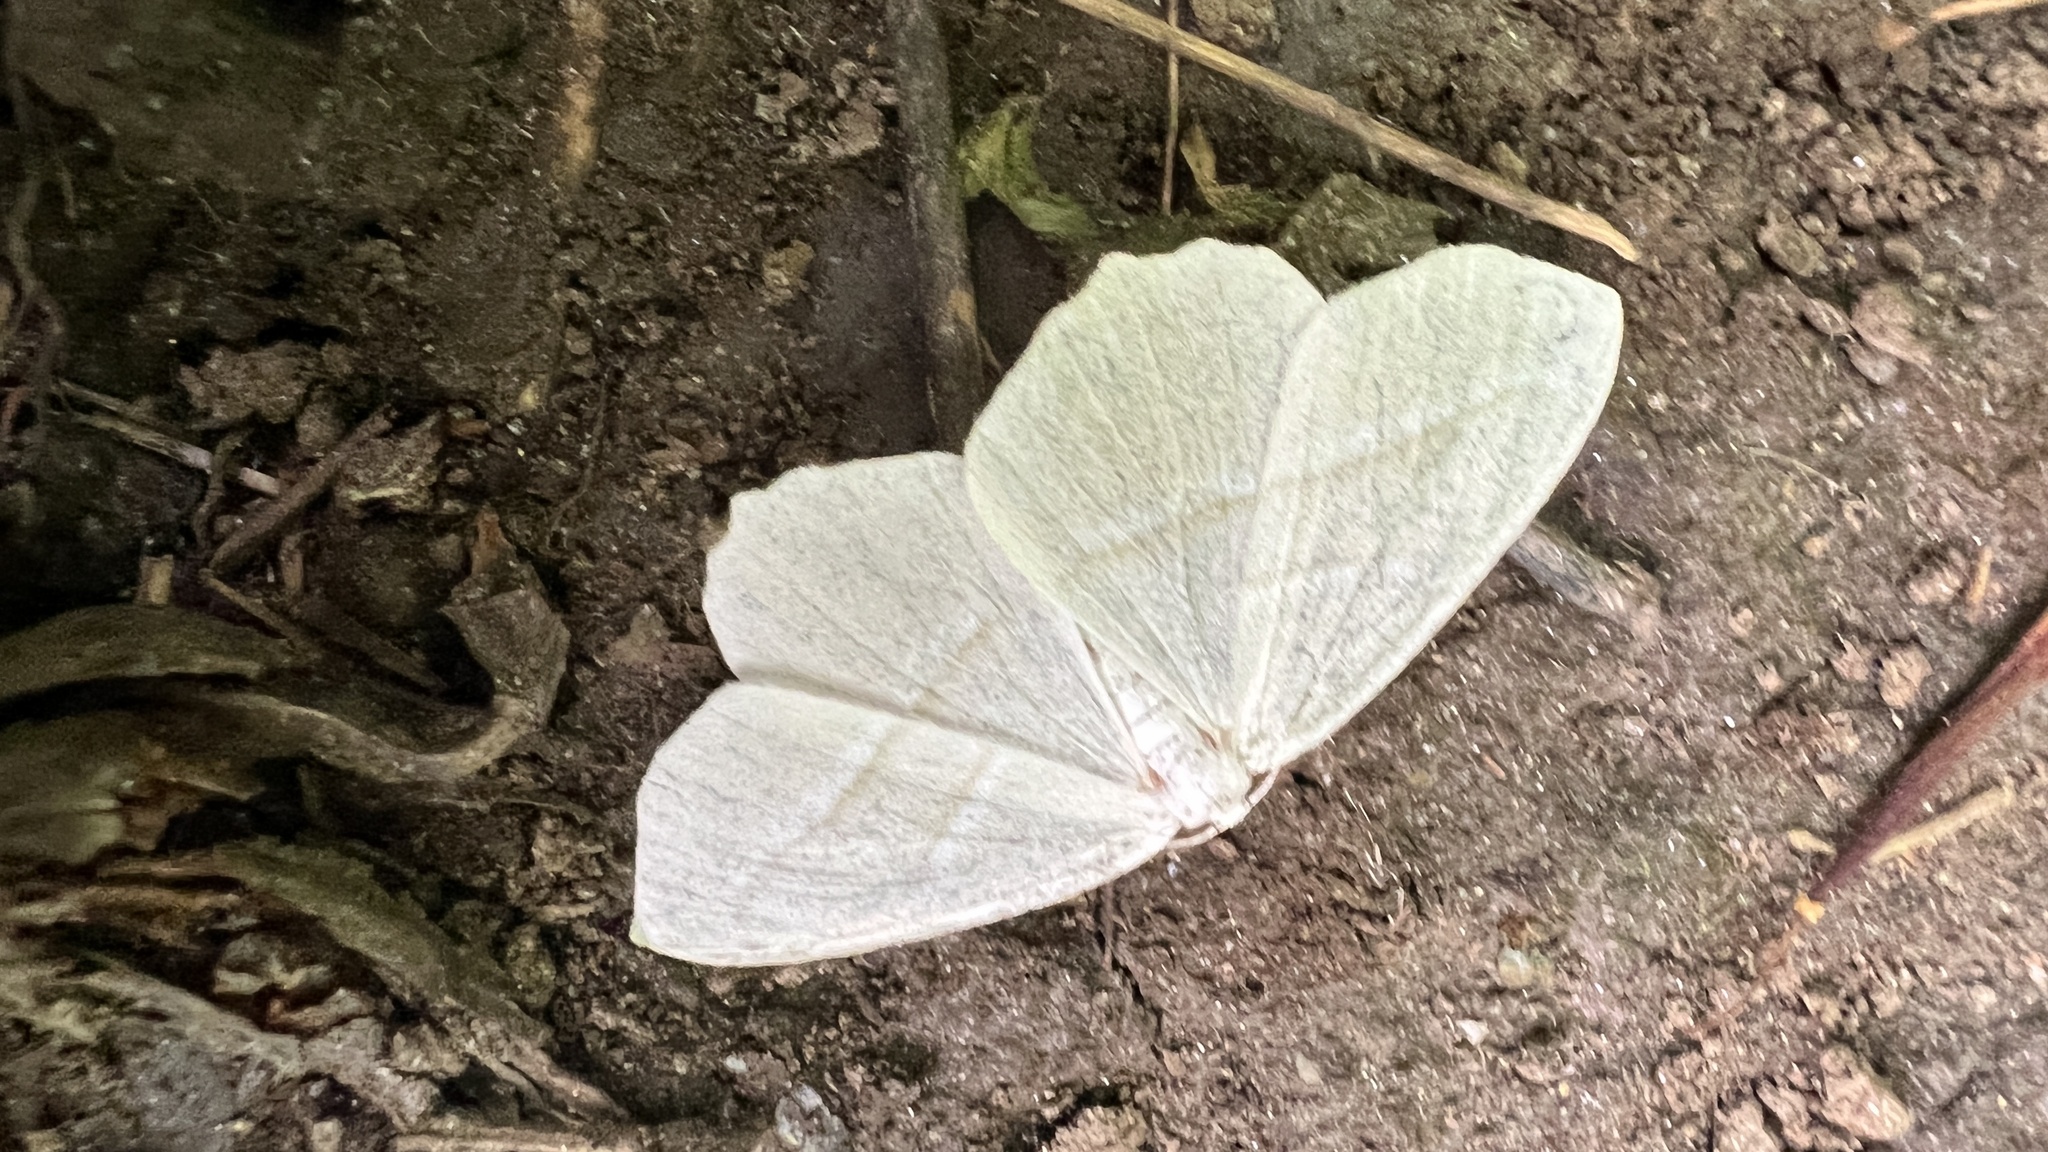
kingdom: Animalia
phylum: Arthropoda
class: Insecta
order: Lepidoptera
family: Geometridae
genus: Campaea
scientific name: Campaea perlata
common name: Fringed looper
